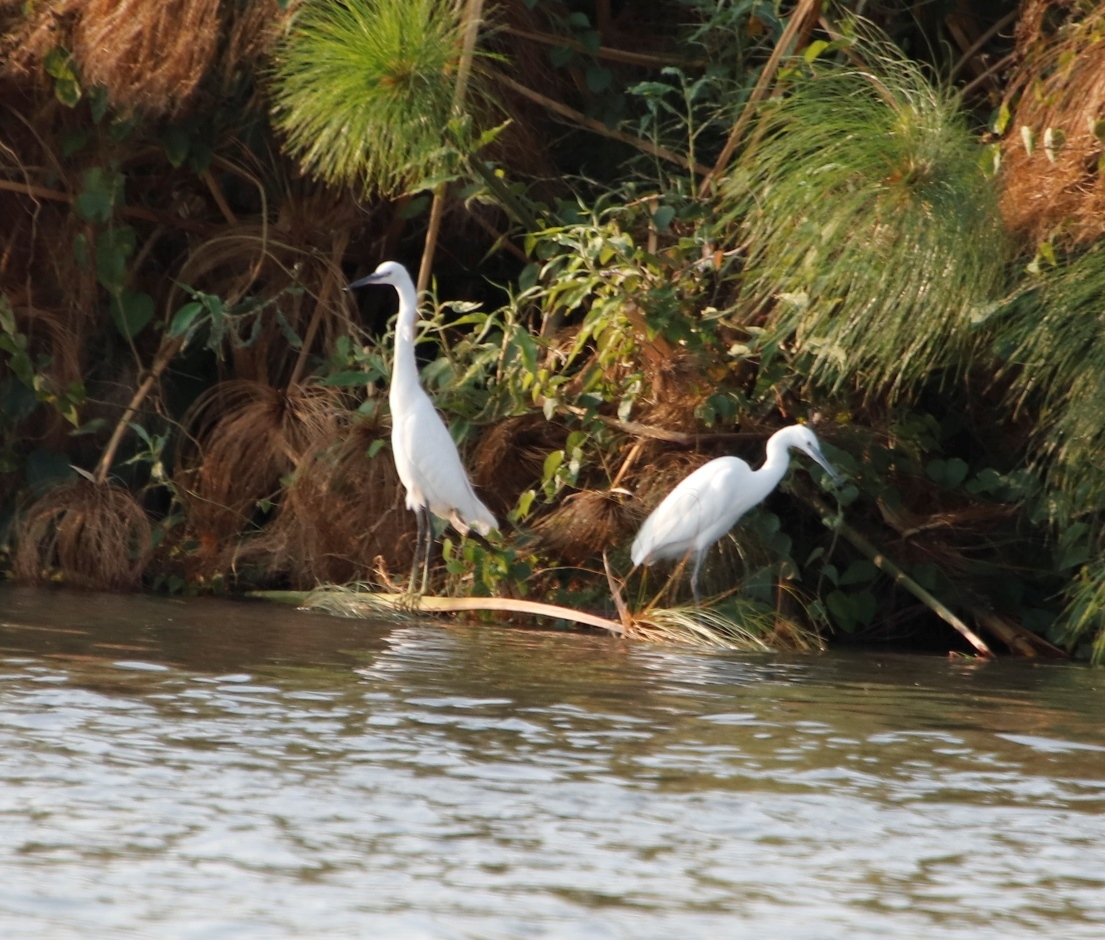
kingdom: Animalia
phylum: Chordata
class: Aves
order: Pelecaniformes
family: Ardeidae
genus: Egretta
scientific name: Egretta garzetta
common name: Little egret
